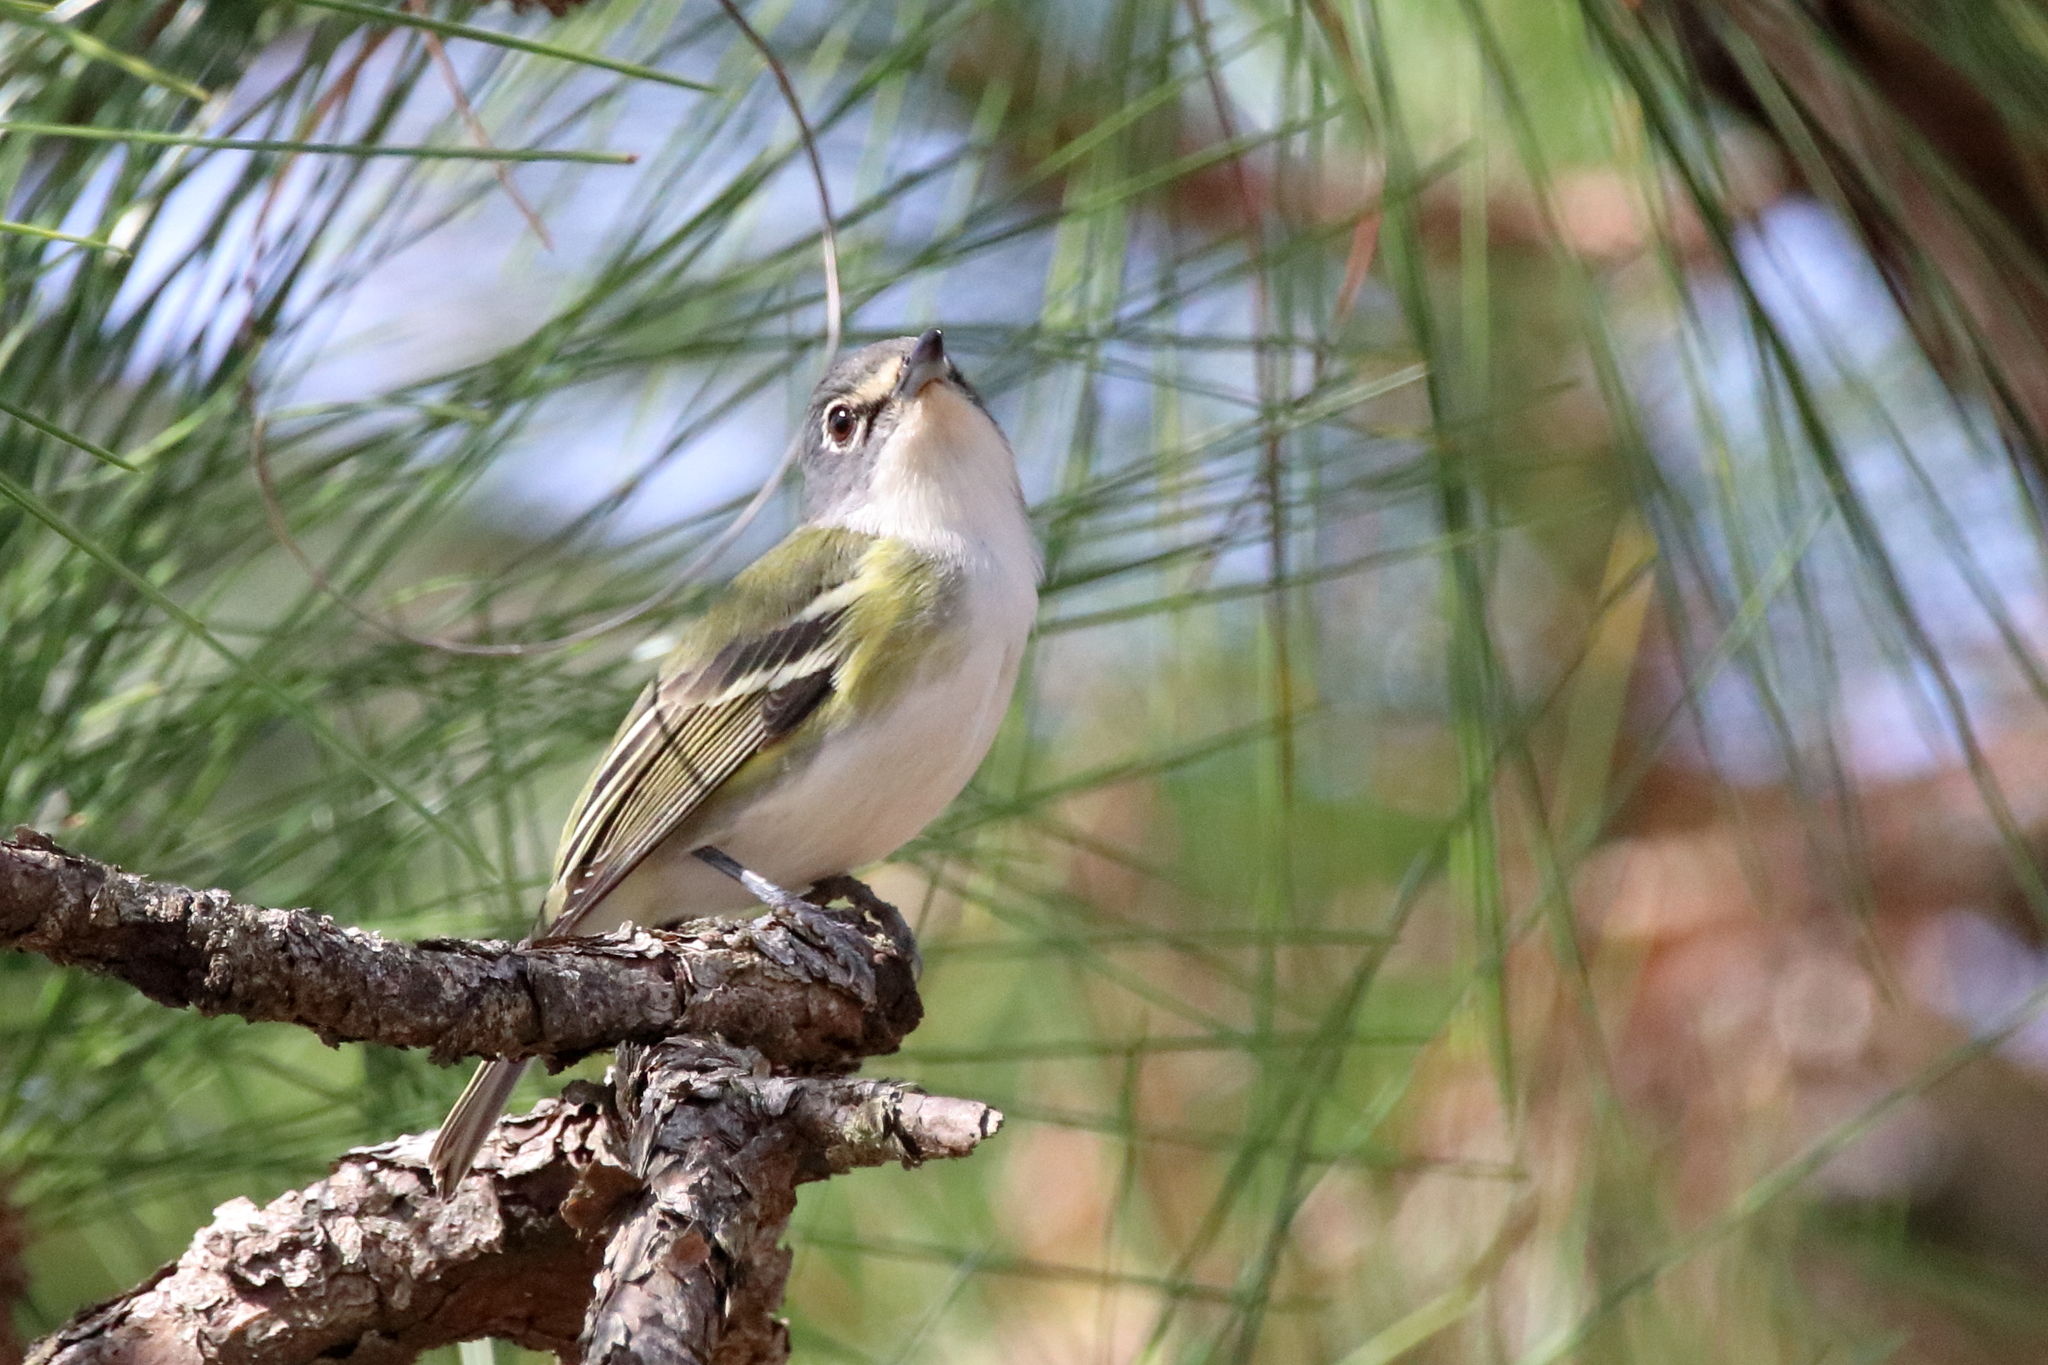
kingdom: Animalia
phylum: Chordata
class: Aves
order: Passeriformes
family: Vireonidae
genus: Vireo
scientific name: Vireo solitarius
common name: Blue-headed vireo
